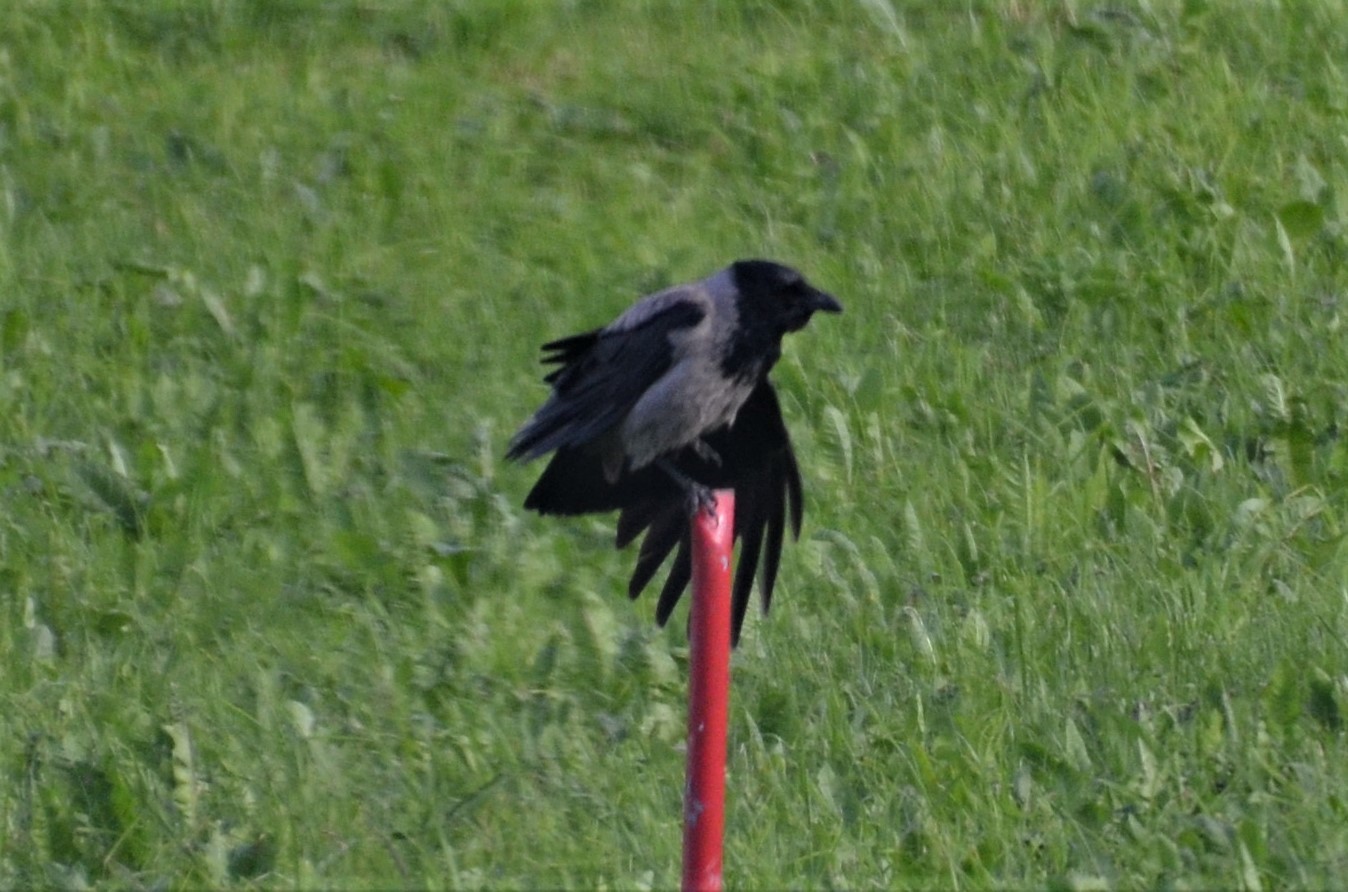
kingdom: Animalia
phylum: Chordata
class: Aves
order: Passeriformes
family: Corvidae
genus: Corvus
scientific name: Corvus cornix
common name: Hooded crow
